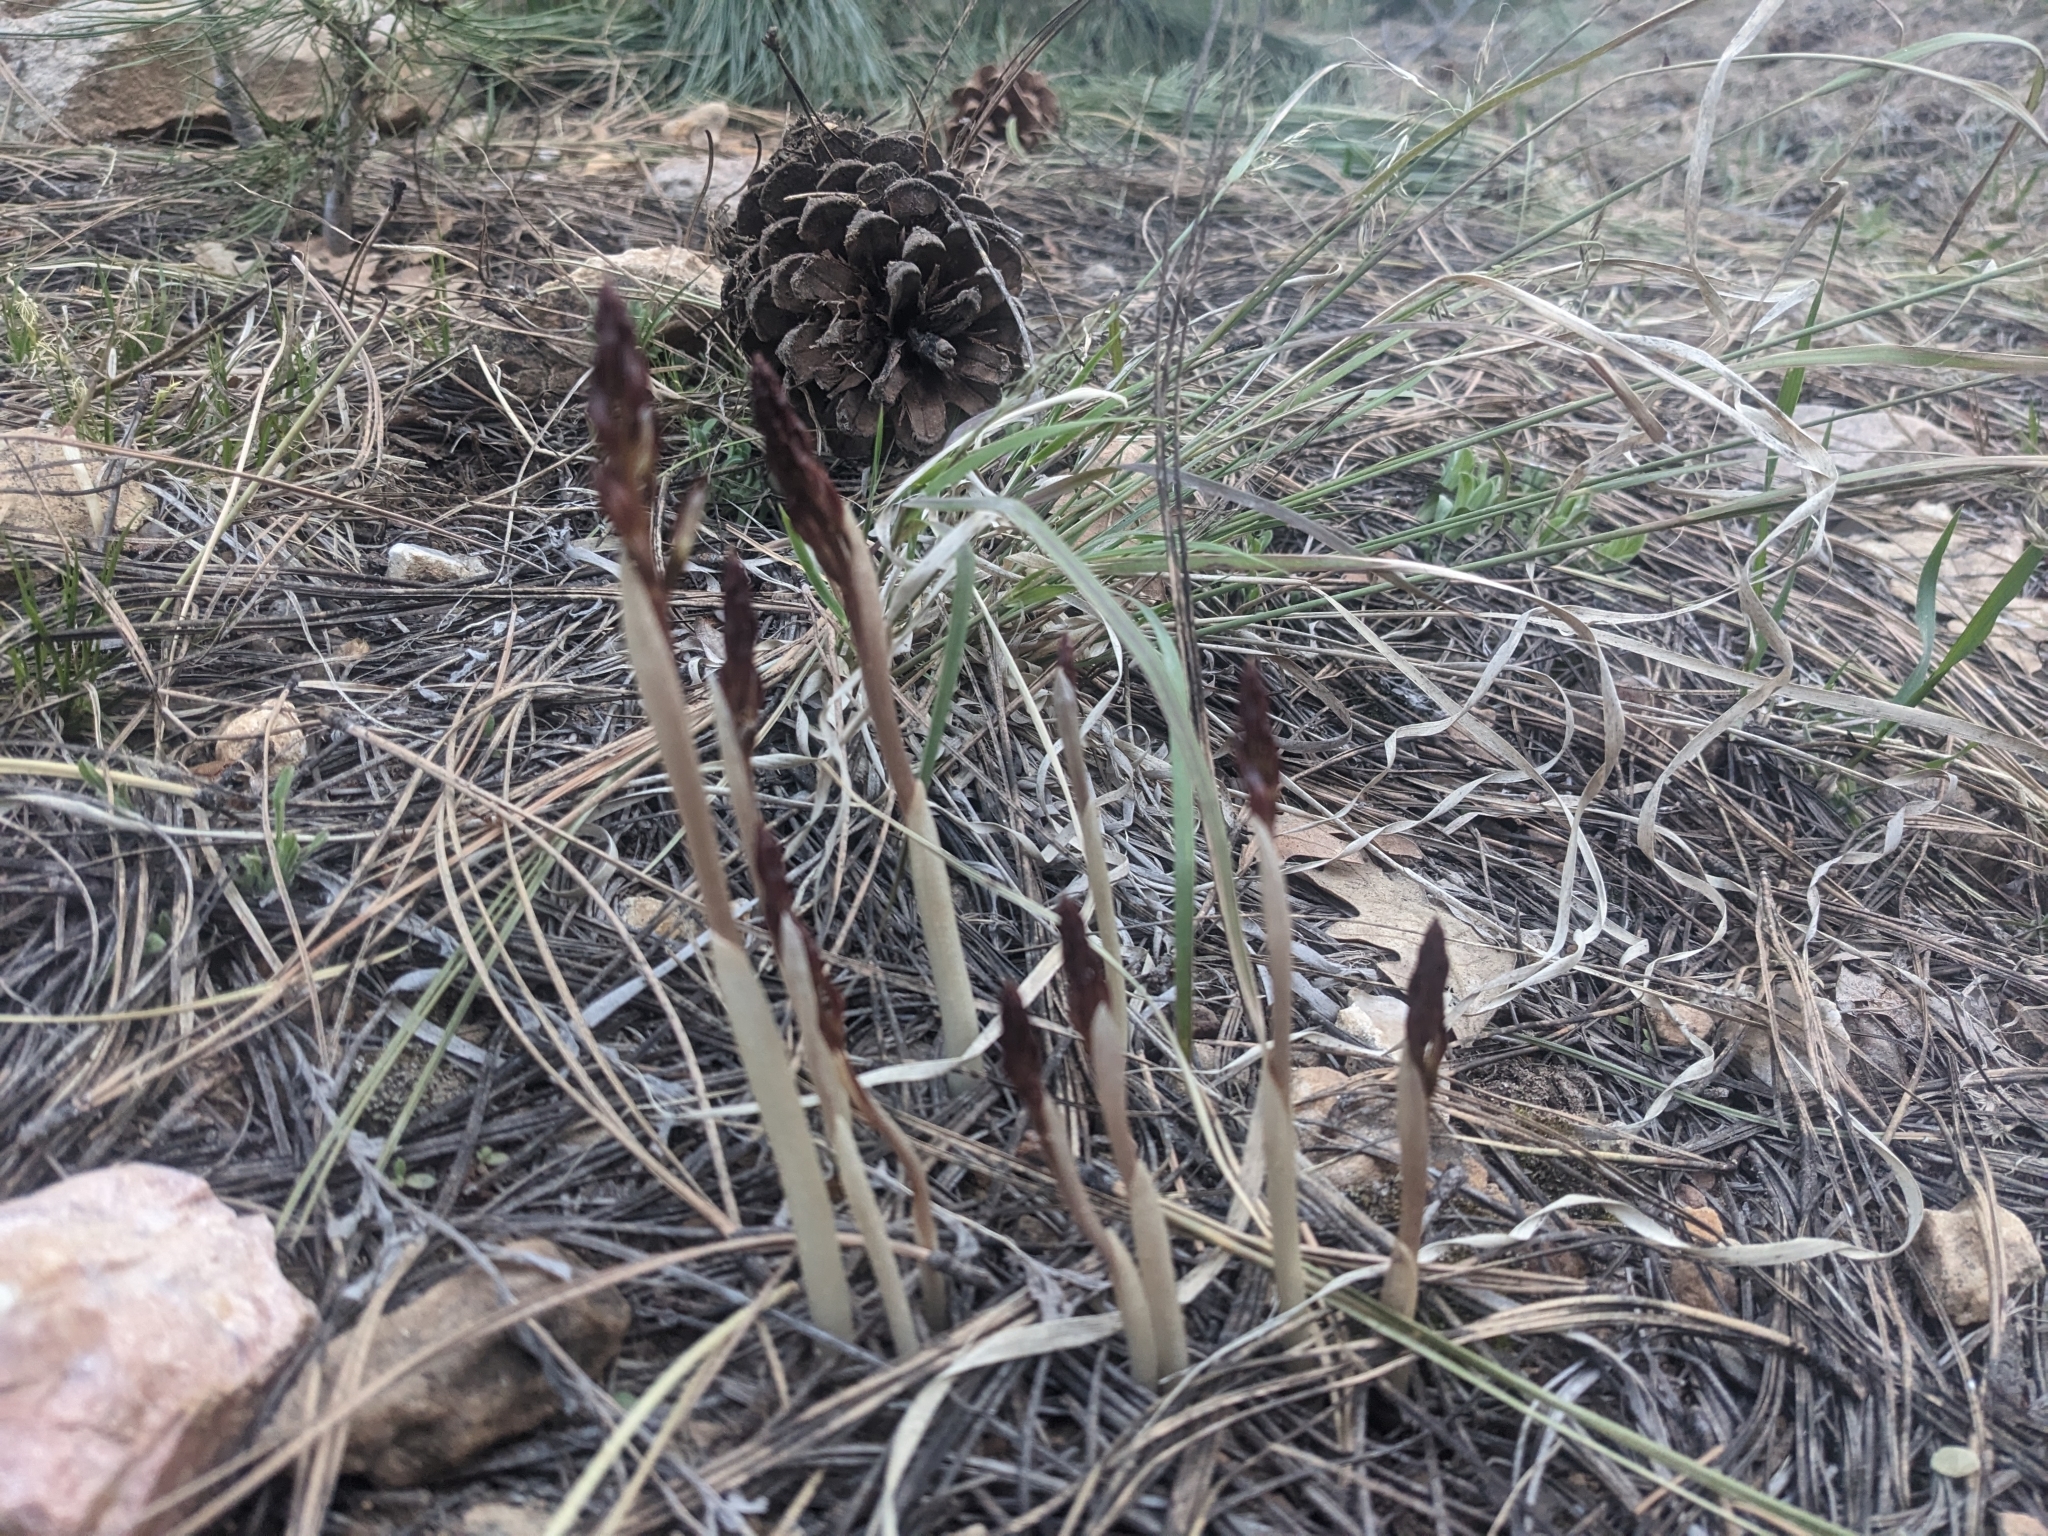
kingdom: Plantae
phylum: Tracheophyta
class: Liliopsida
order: Asparagales
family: Orchidaceae
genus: Corallorhiza
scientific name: Corallorhiza wisteriana
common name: Spring coralroot
